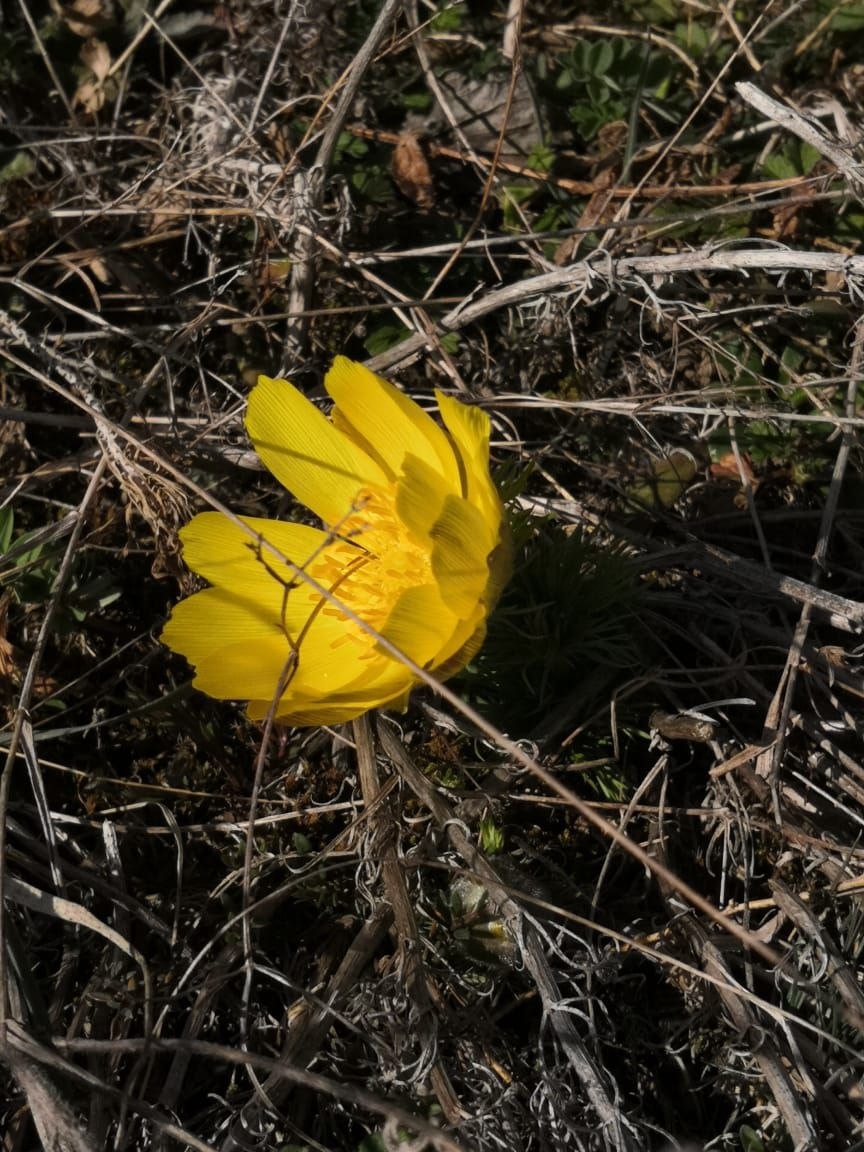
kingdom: Plantae
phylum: Tracheophyta
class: Magnoliopsida
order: Ranunculales
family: Ranunculaceae
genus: Adonis
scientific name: Adonis vernalis
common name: Yellow pheasants-eye
